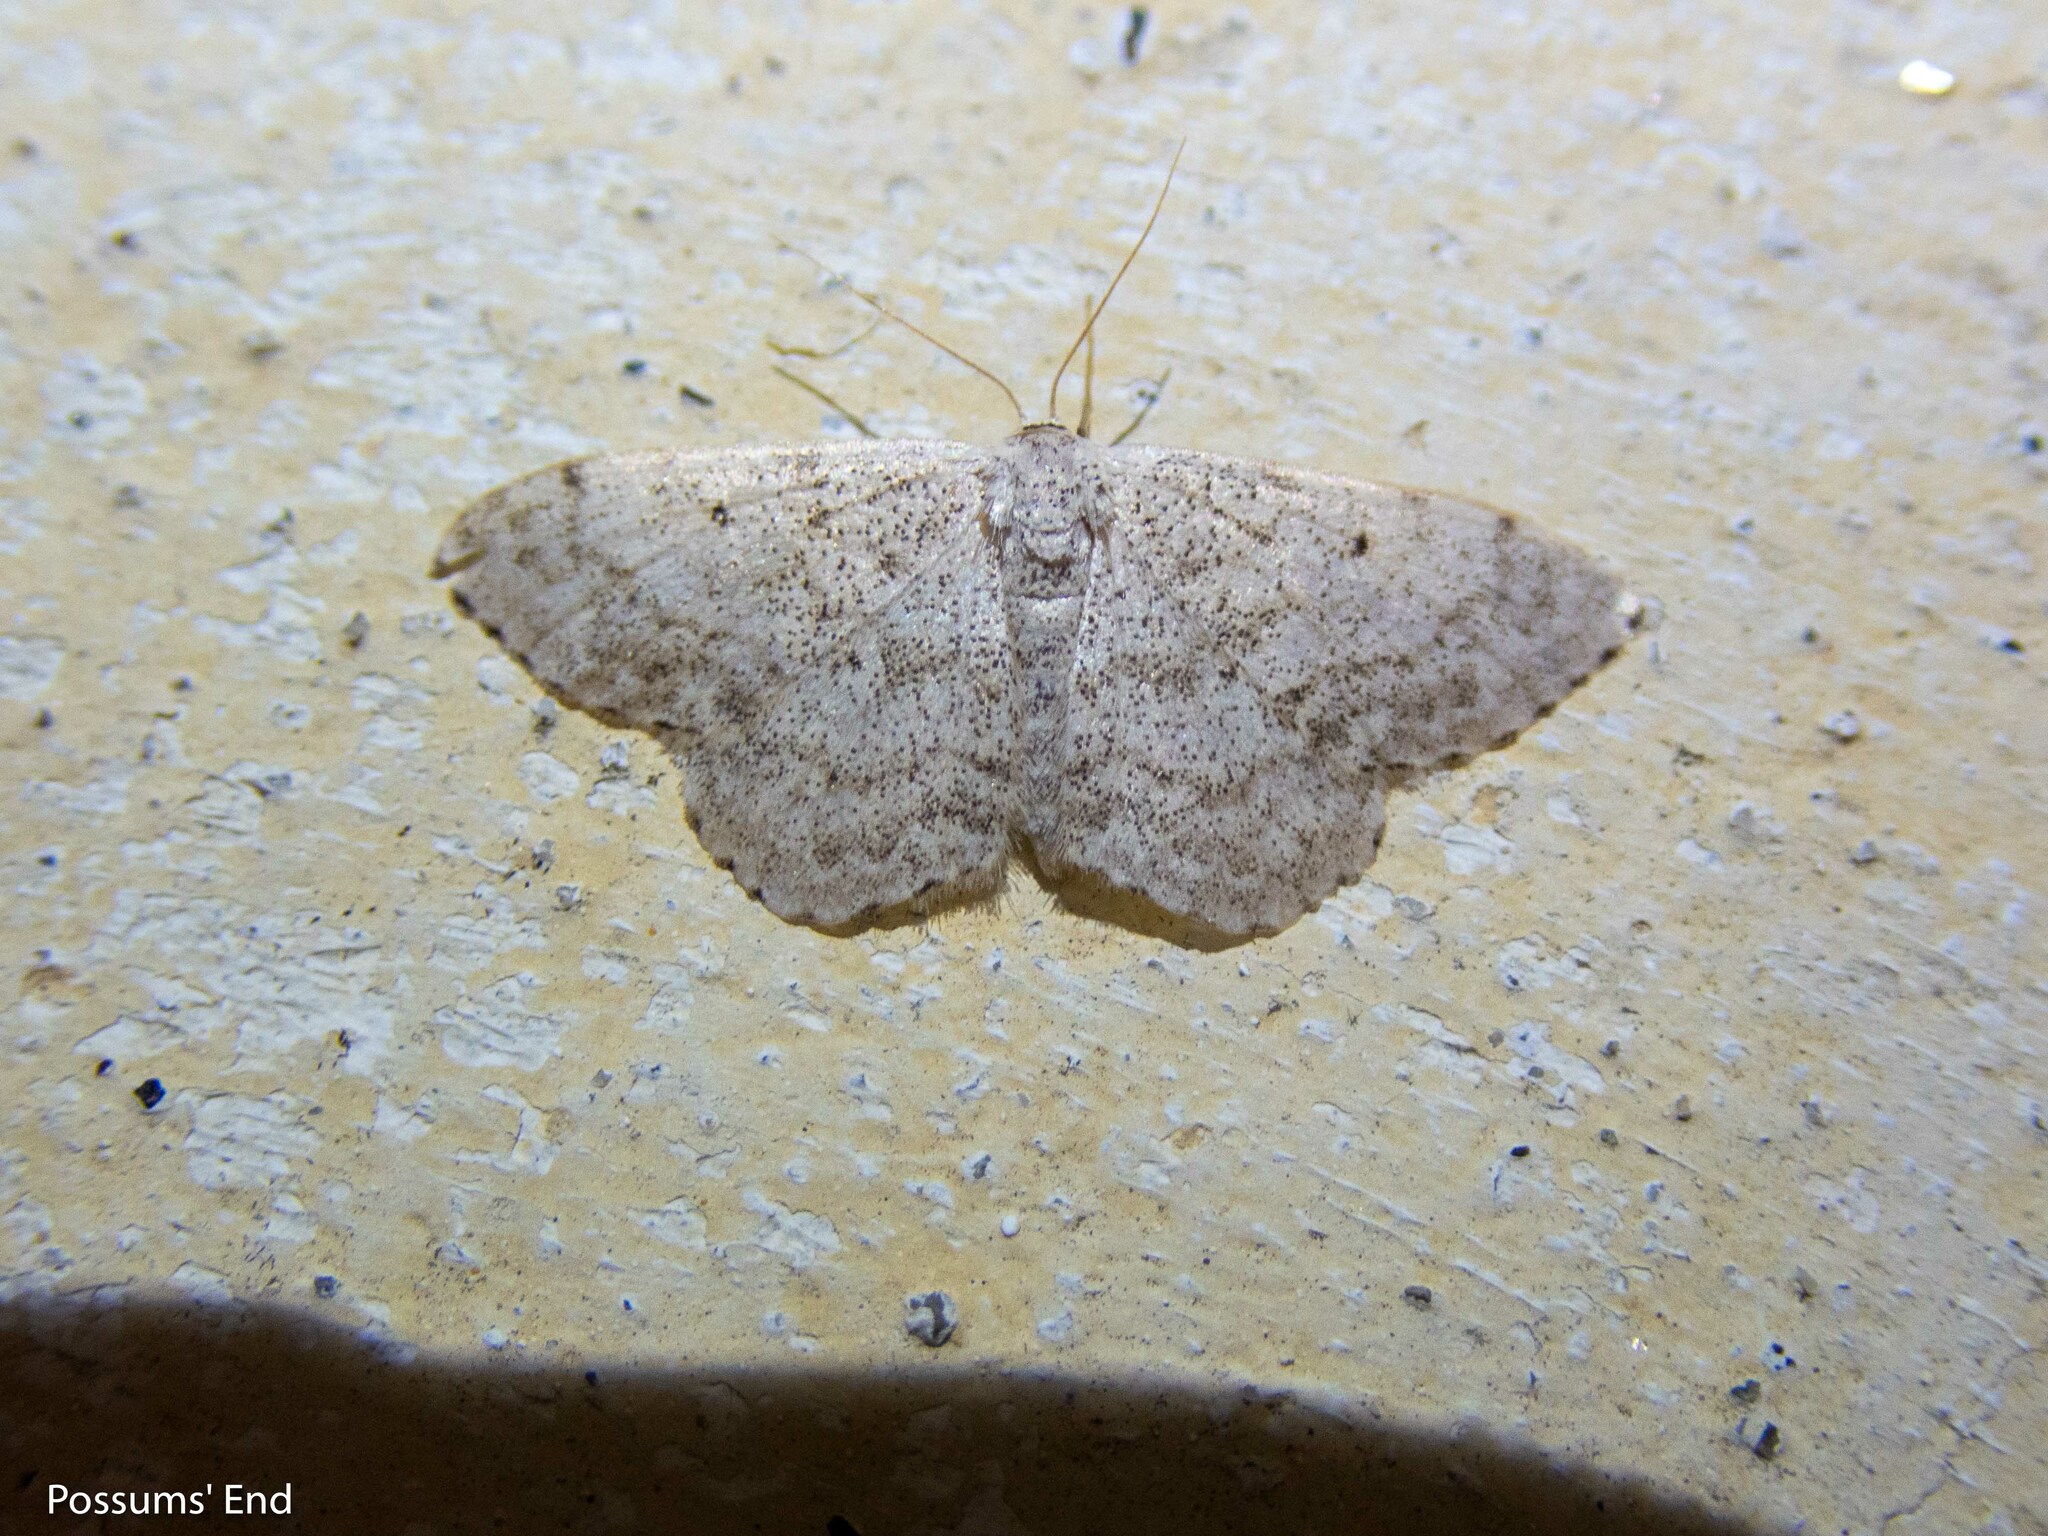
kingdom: Animalia
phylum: Arthropoda
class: Insecta
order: Lepidoptera
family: Geometridae
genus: Scopula
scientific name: Scopula marginepunctata
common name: Mullein wave
